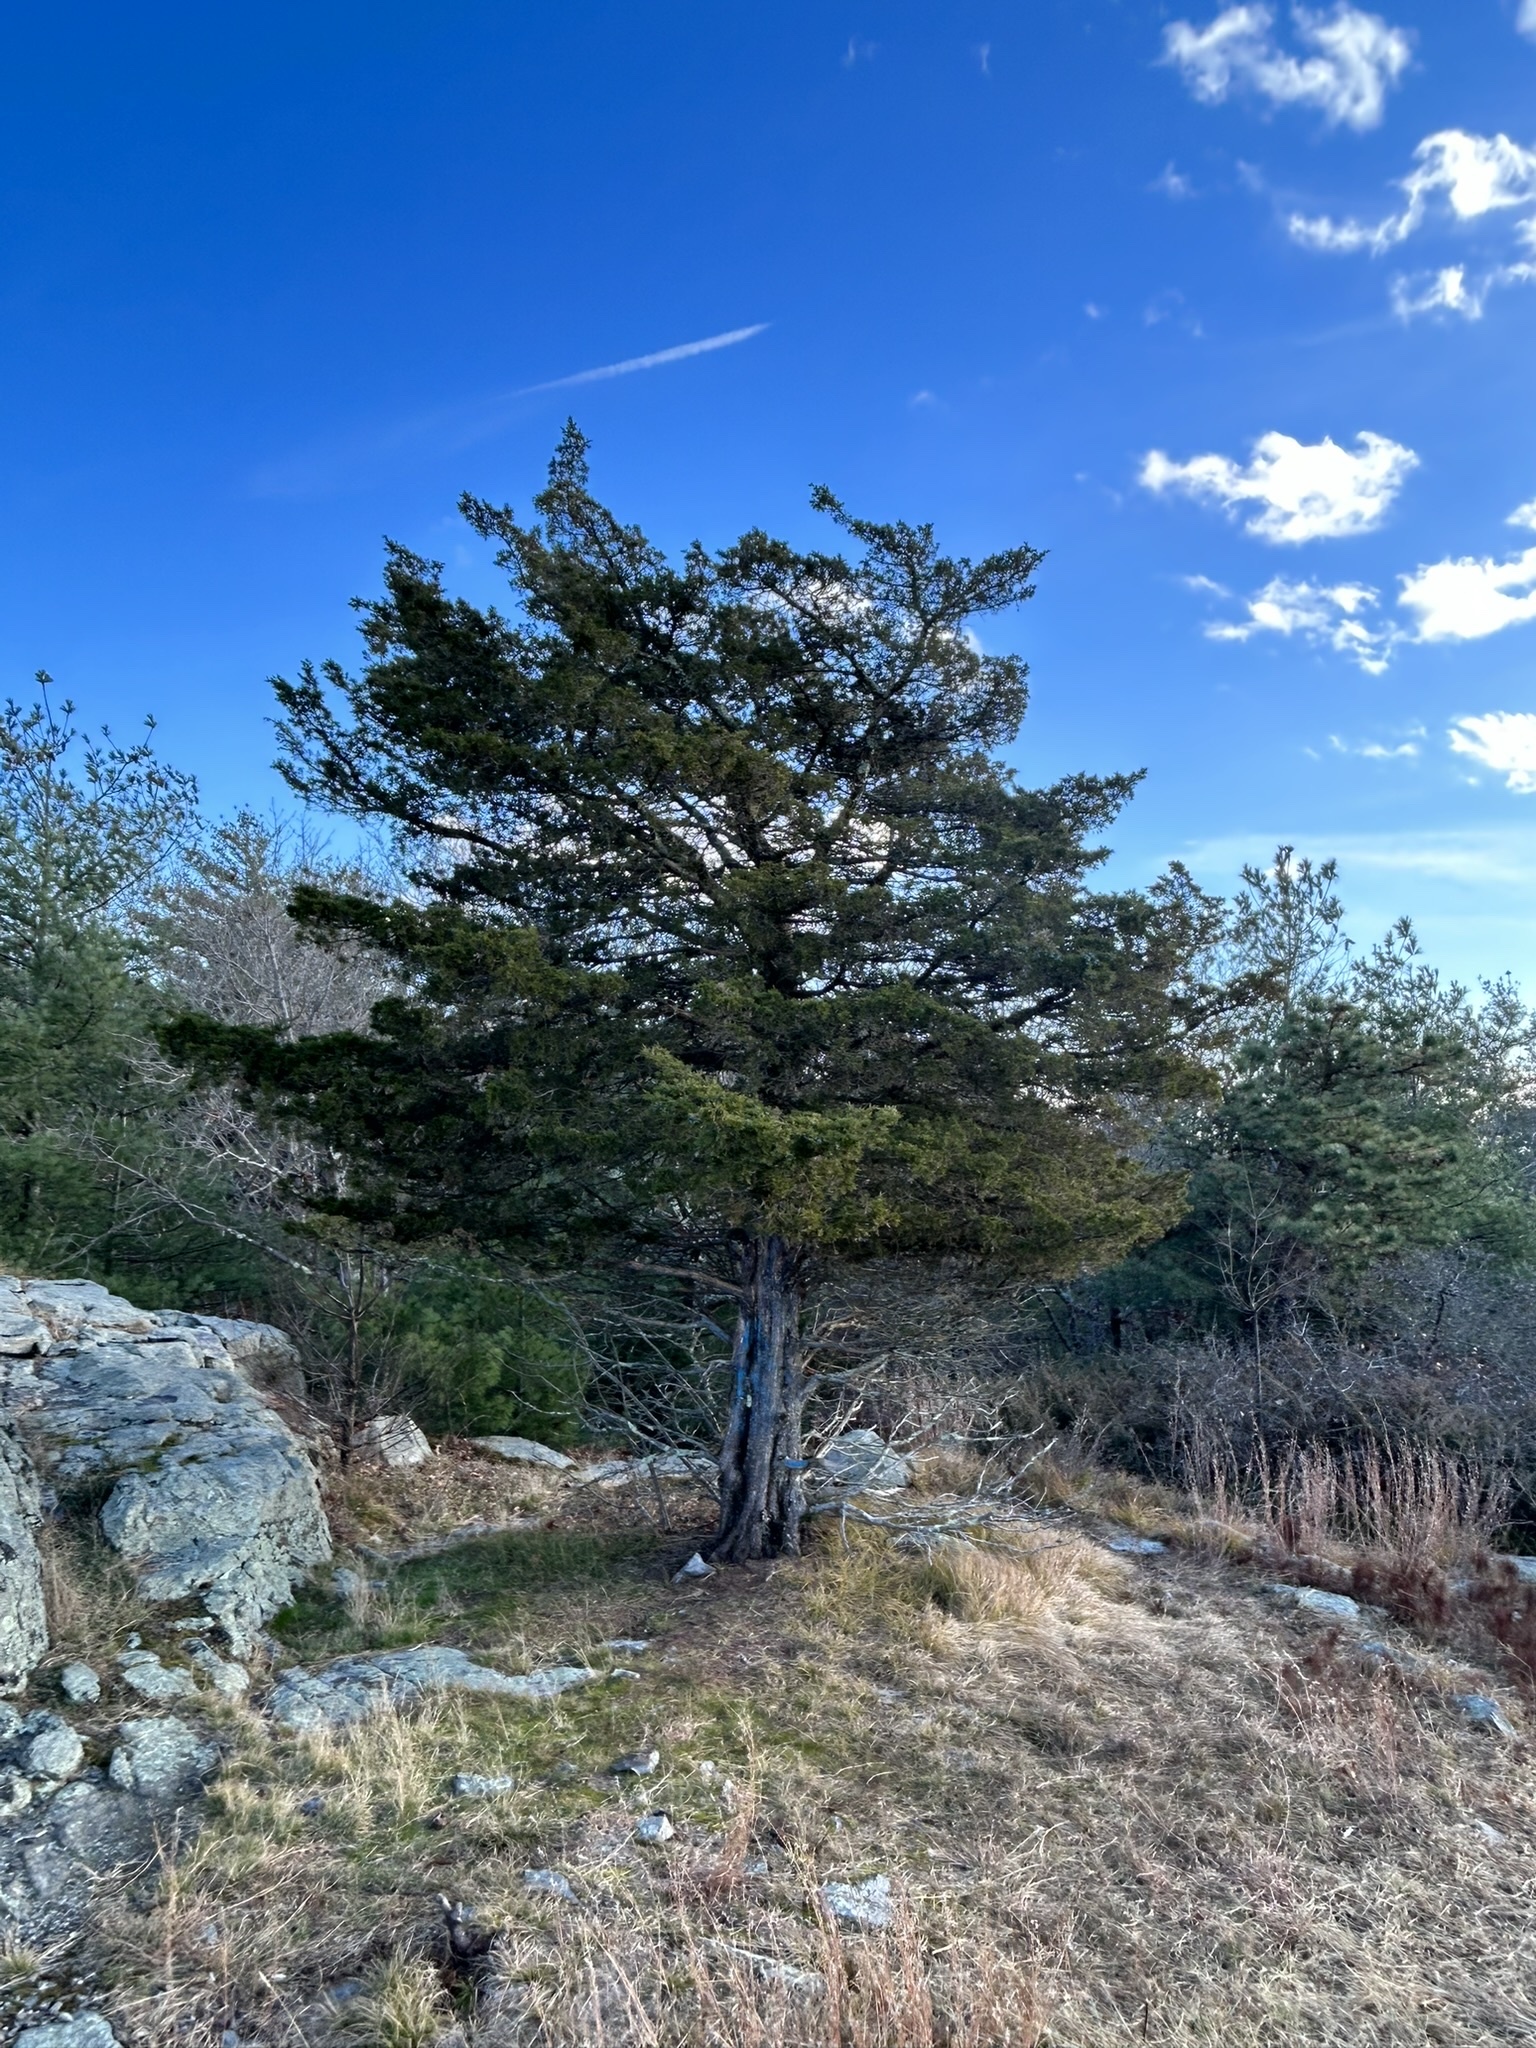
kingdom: Plantae
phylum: Tracheophyta
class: Pinopsida
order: Pinales
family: Cupressaceae
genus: Juniperus
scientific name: Juniperus virginiana
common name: Red juniper
